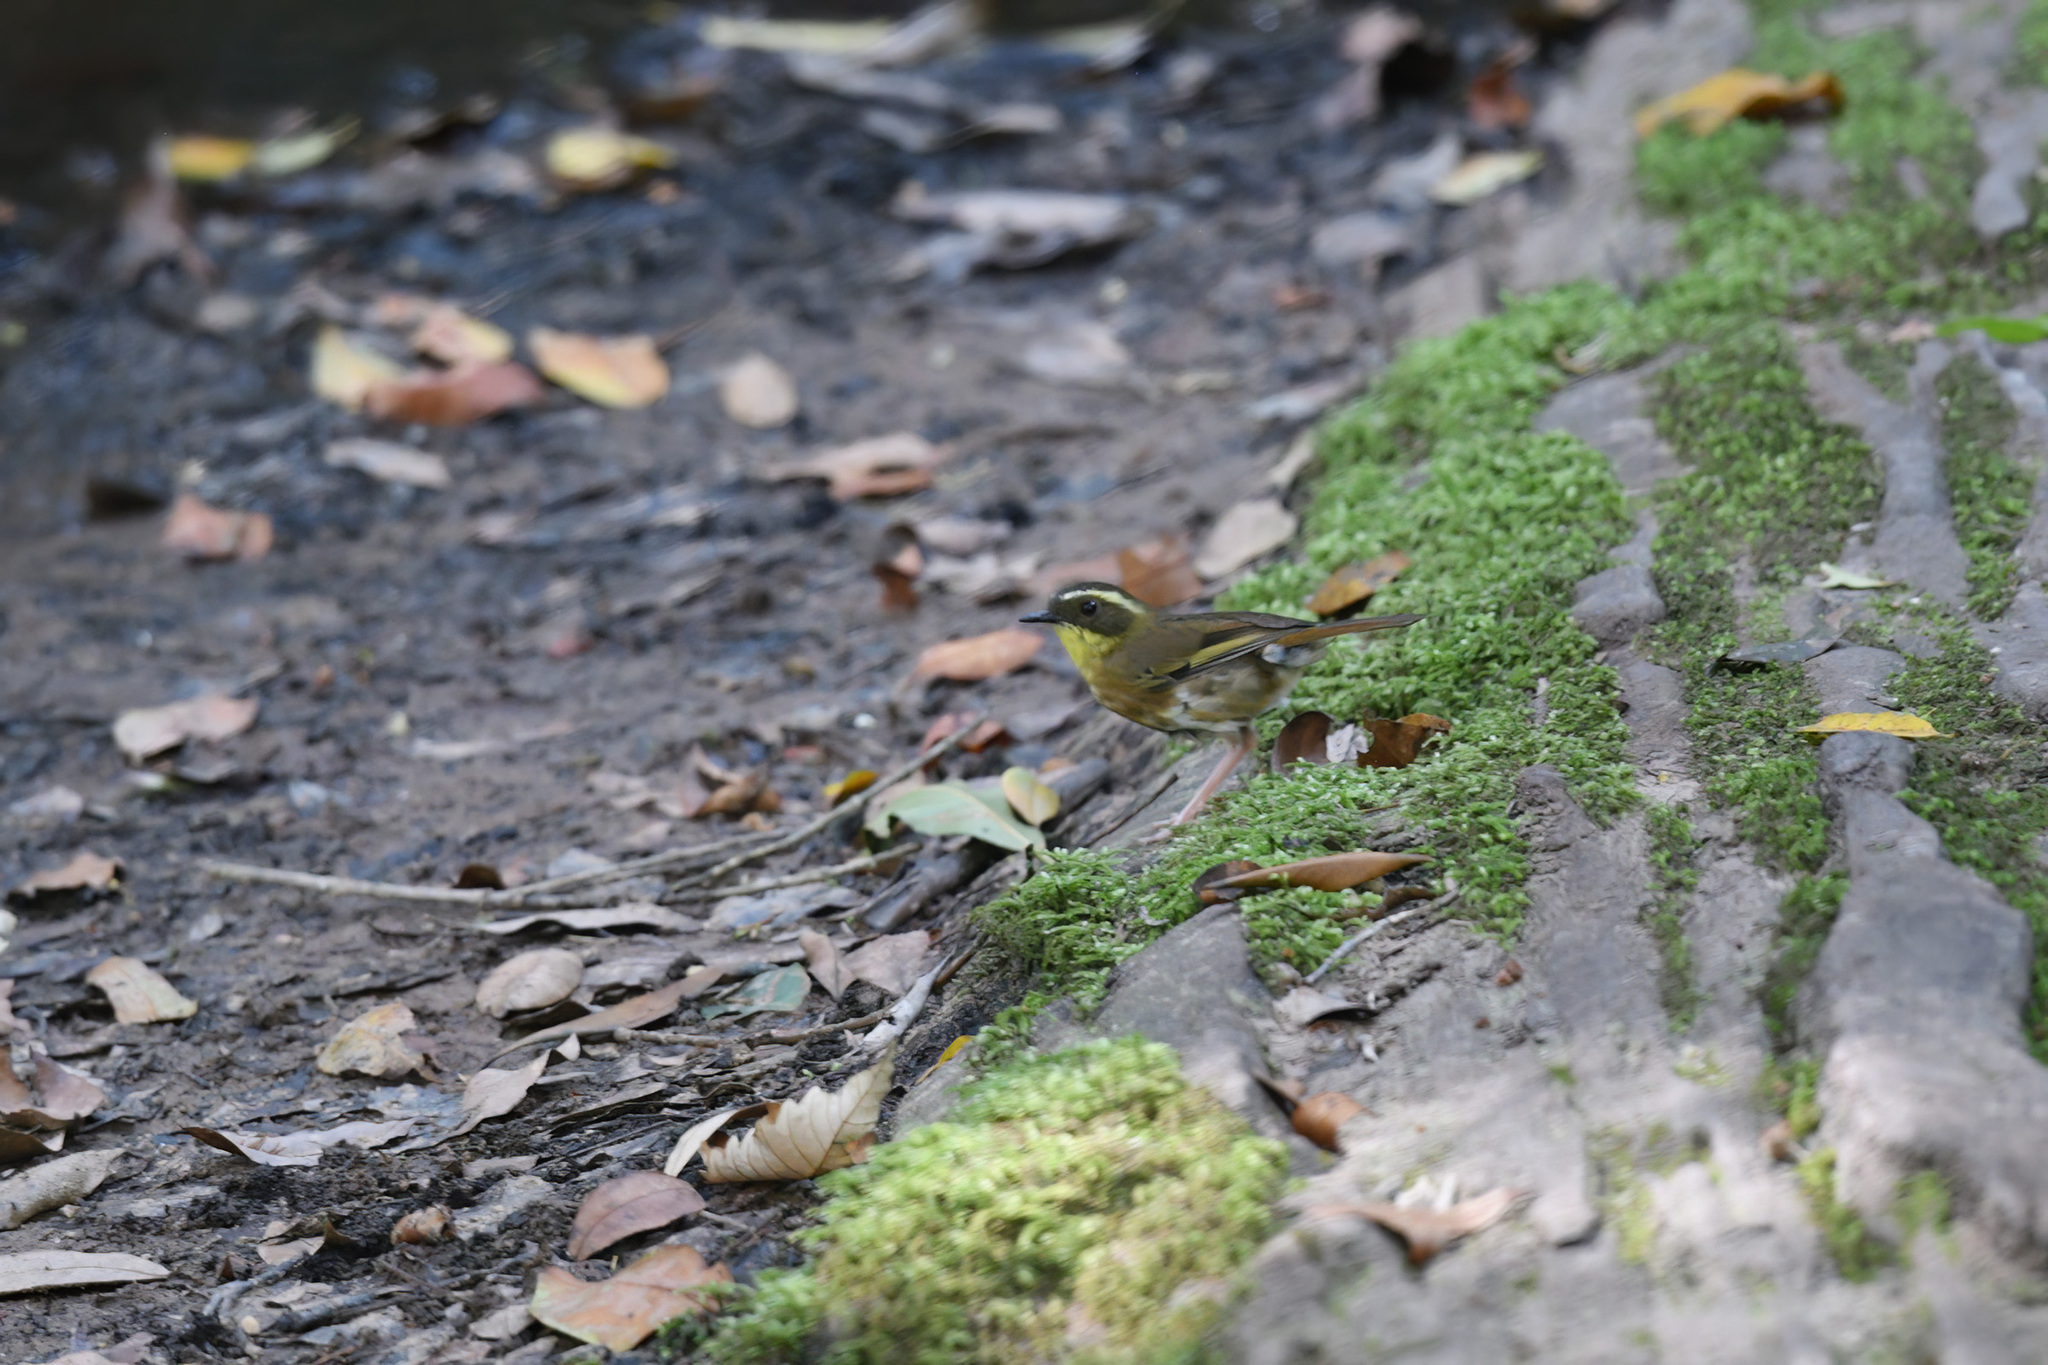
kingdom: Animalia
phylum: Chordata
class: Aves
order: Passeriformes
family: Acanthizidae
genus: Sericornis
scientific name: Sericornis citreogularis
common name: Yellow-throated scrubwren
